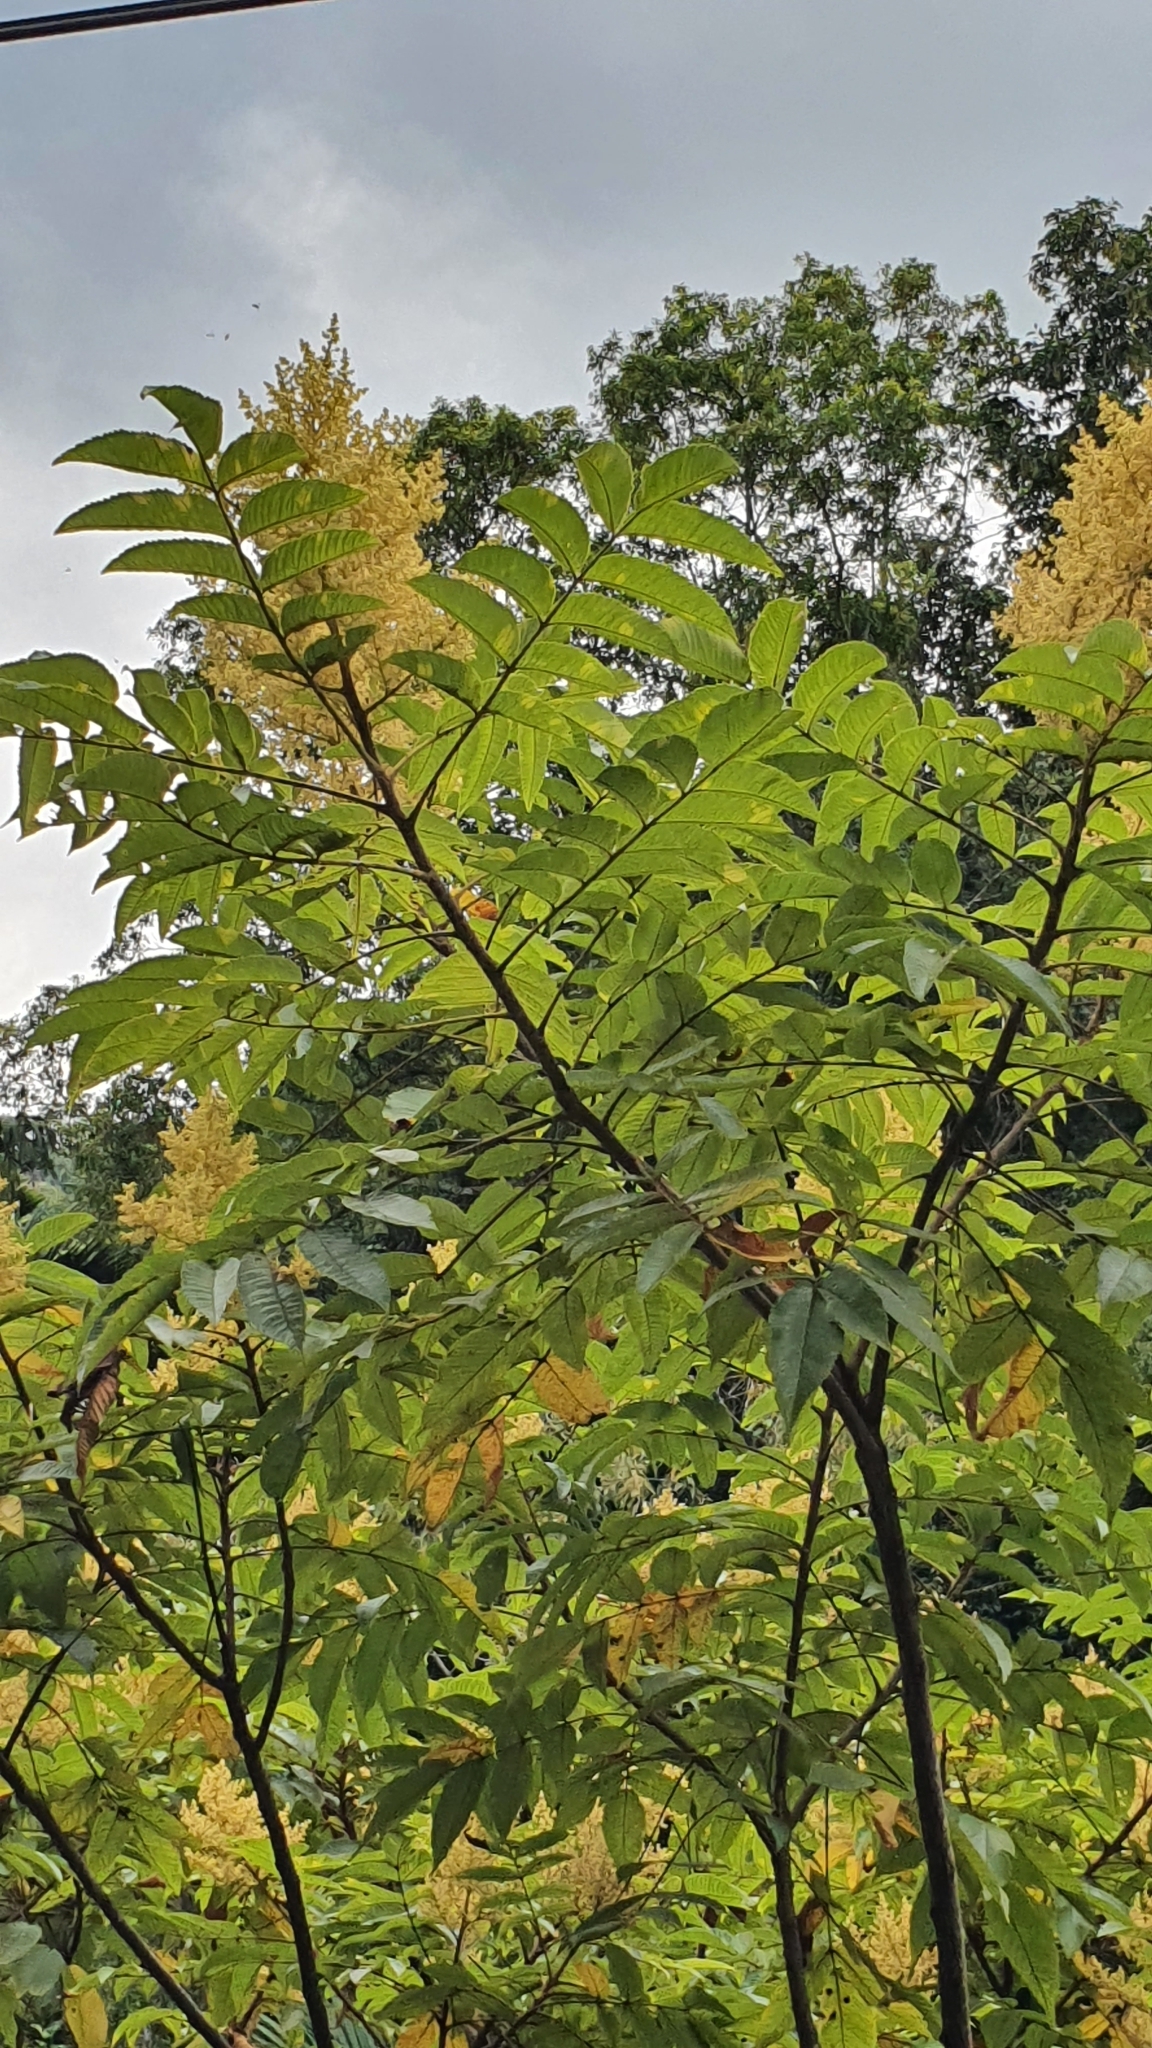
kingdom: Plantae
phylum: Tracheophyta
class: Magnoliopsida
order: Sapindales
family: Anacardiaceae
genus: Rhus
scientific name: Rhus chinensis
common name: Chinese gall
